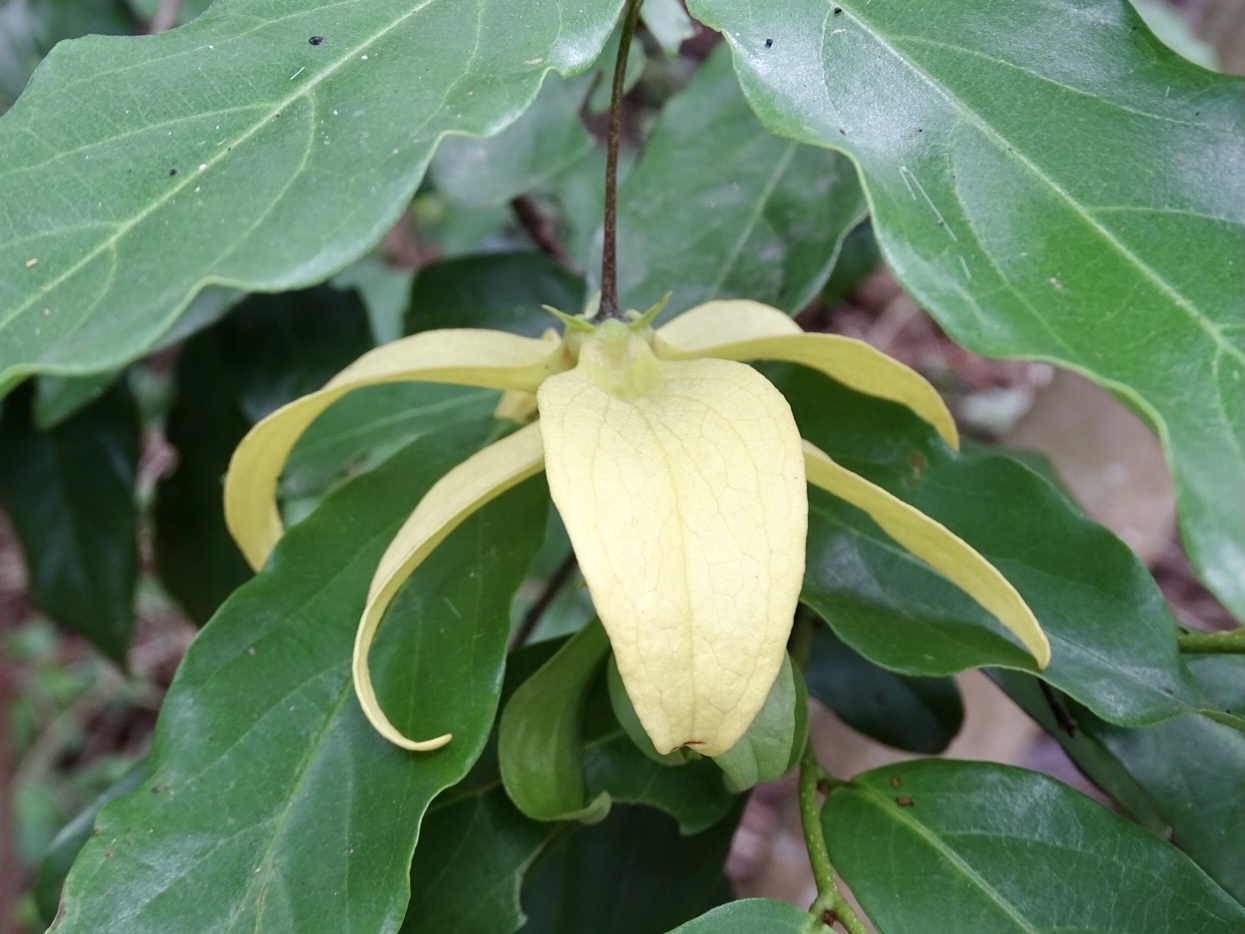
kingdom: Plantae
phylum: Tracheophyta
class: Magnoliopsida
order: Magnoliales
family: Annonaceae
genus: Desmos
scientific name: Desmos chinensis
